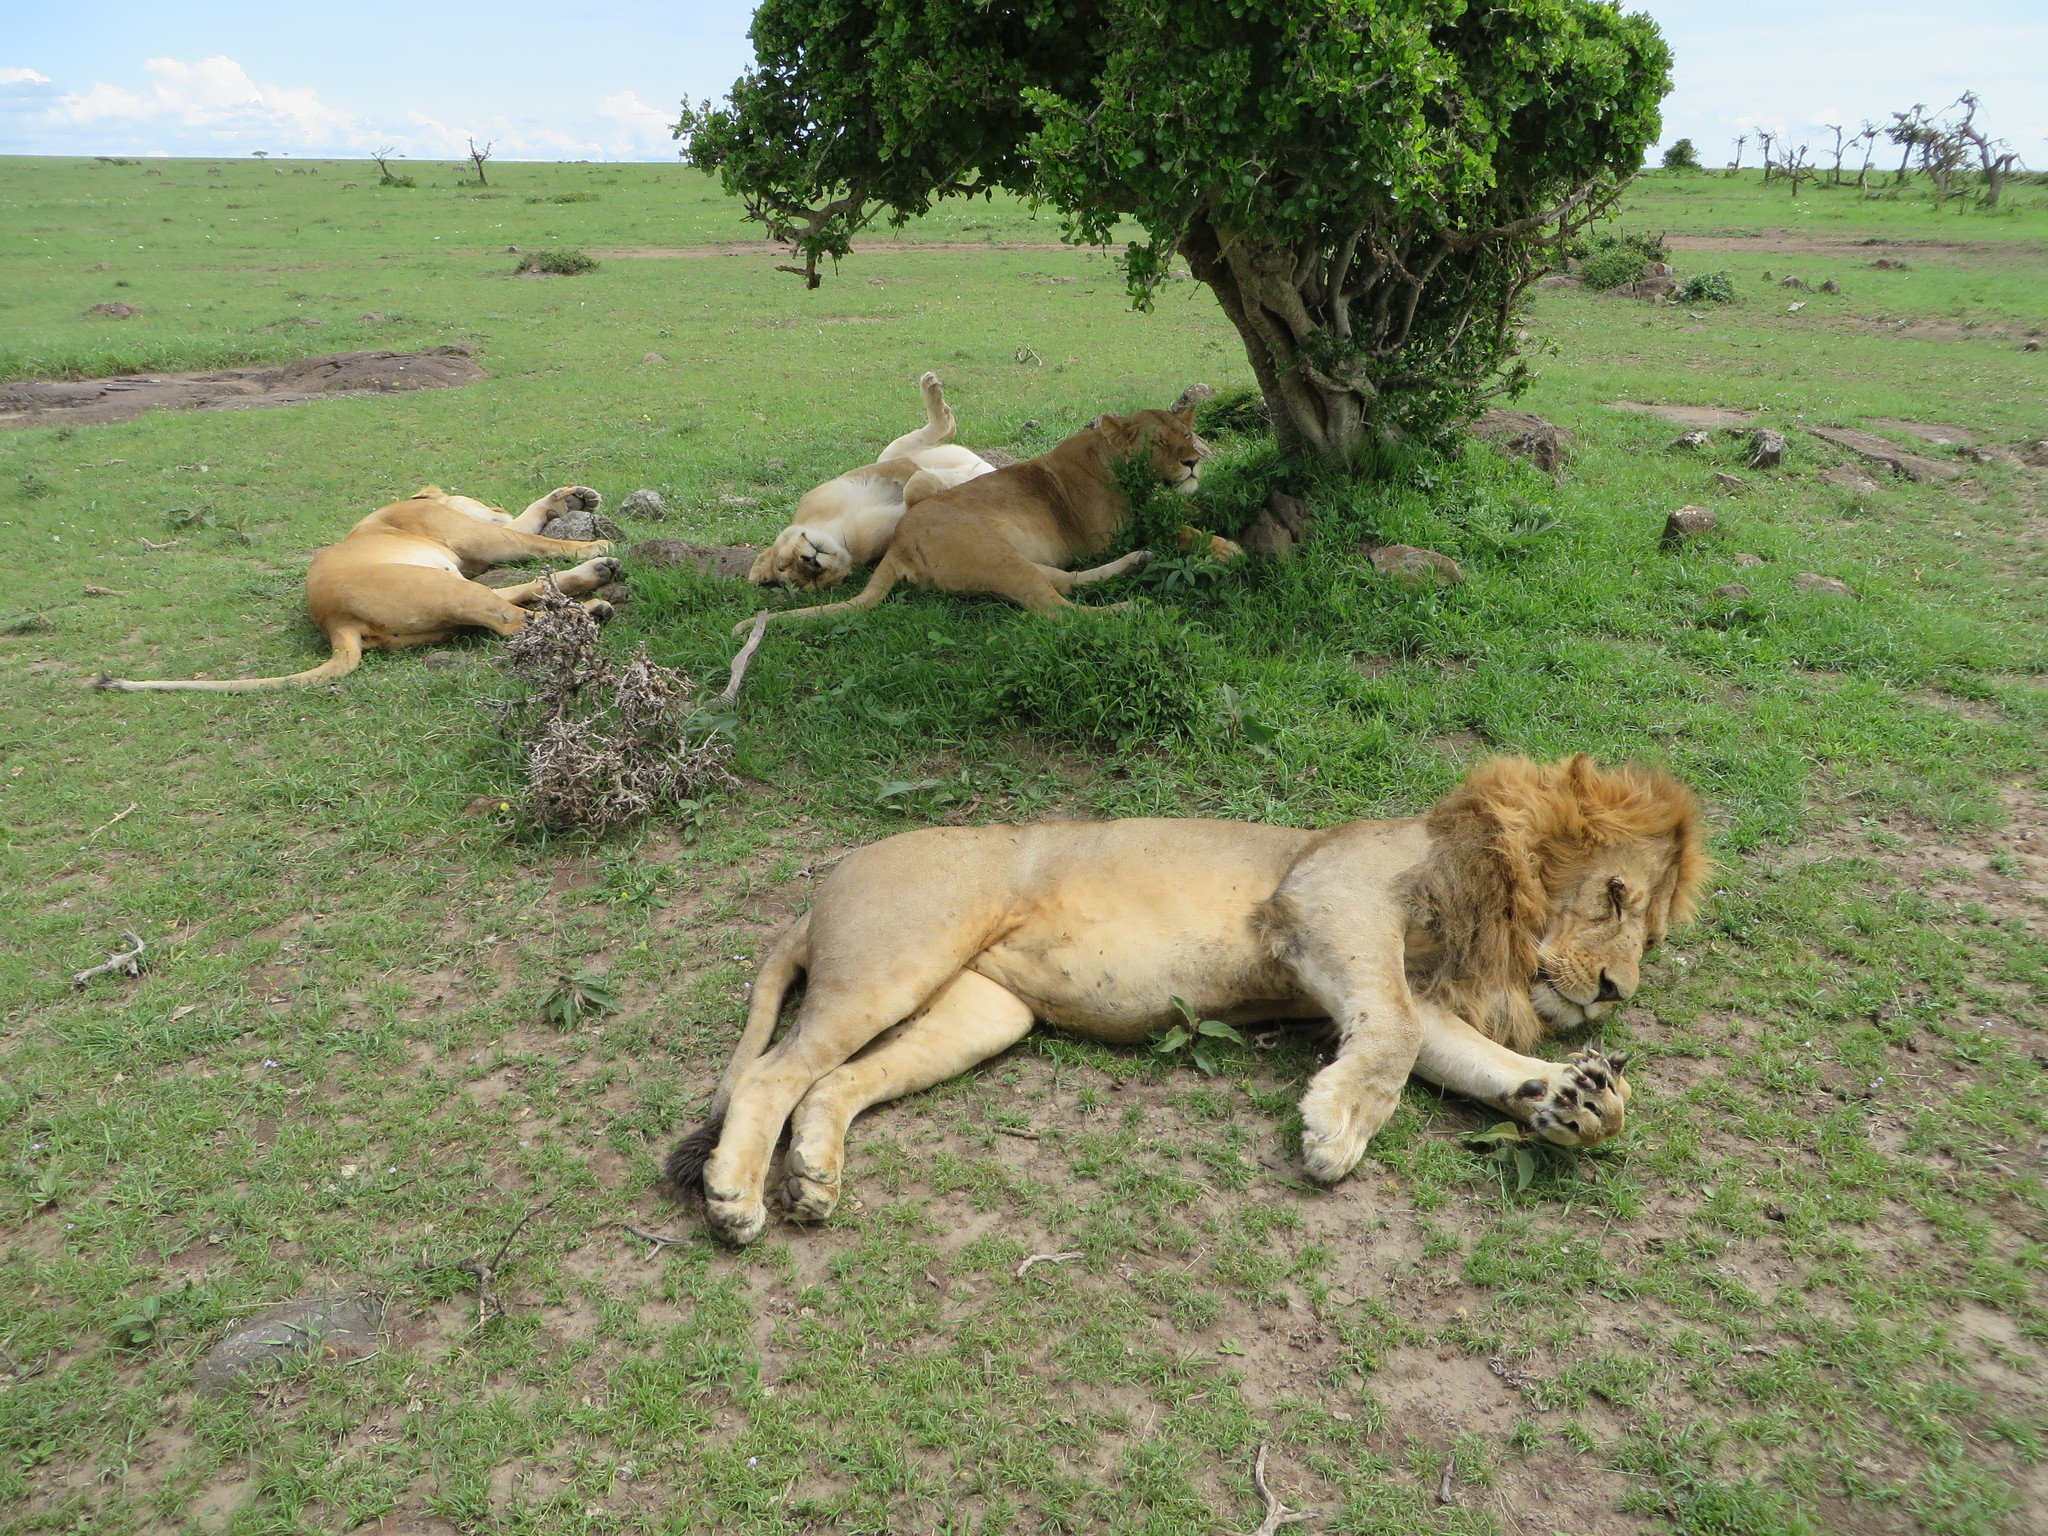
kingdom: Animalia
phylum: Chordata
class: Mammalia
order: Carnivora
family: Felidae
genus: Panthera
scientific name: Panthera leo
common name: Lion
